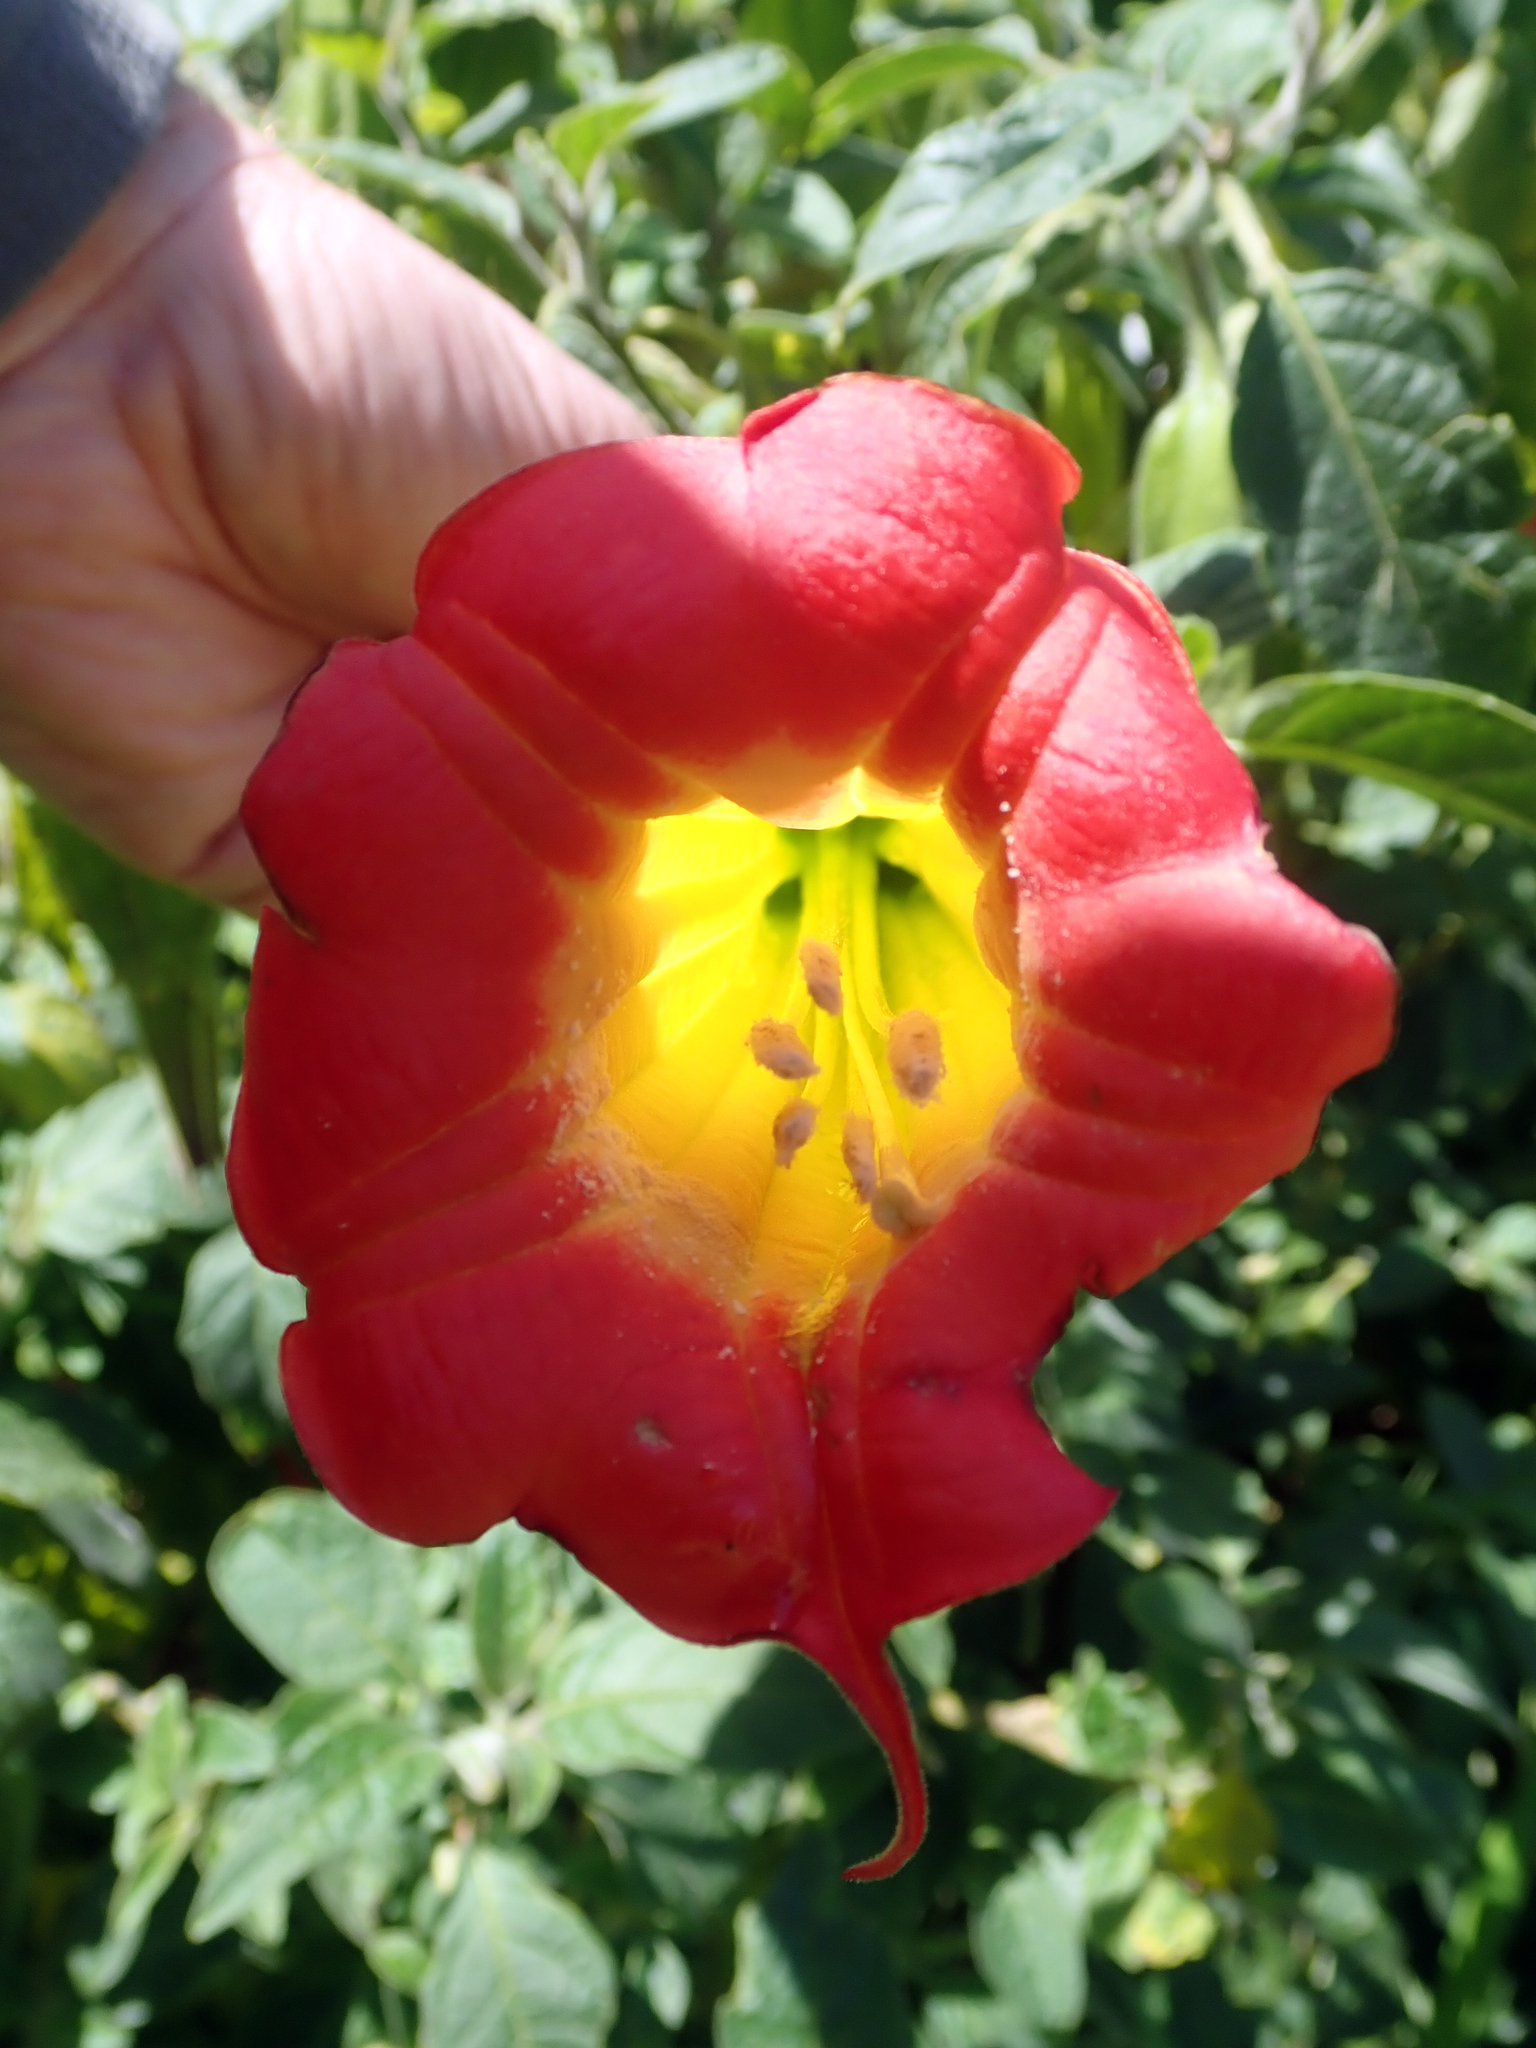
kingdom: Plantae
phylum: Tracheophyta
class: Magnoliopsida
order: Solanales
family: Solanaceae
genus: Brugmansia
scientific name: Brugmansia sanguinea
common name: Red floripontio
